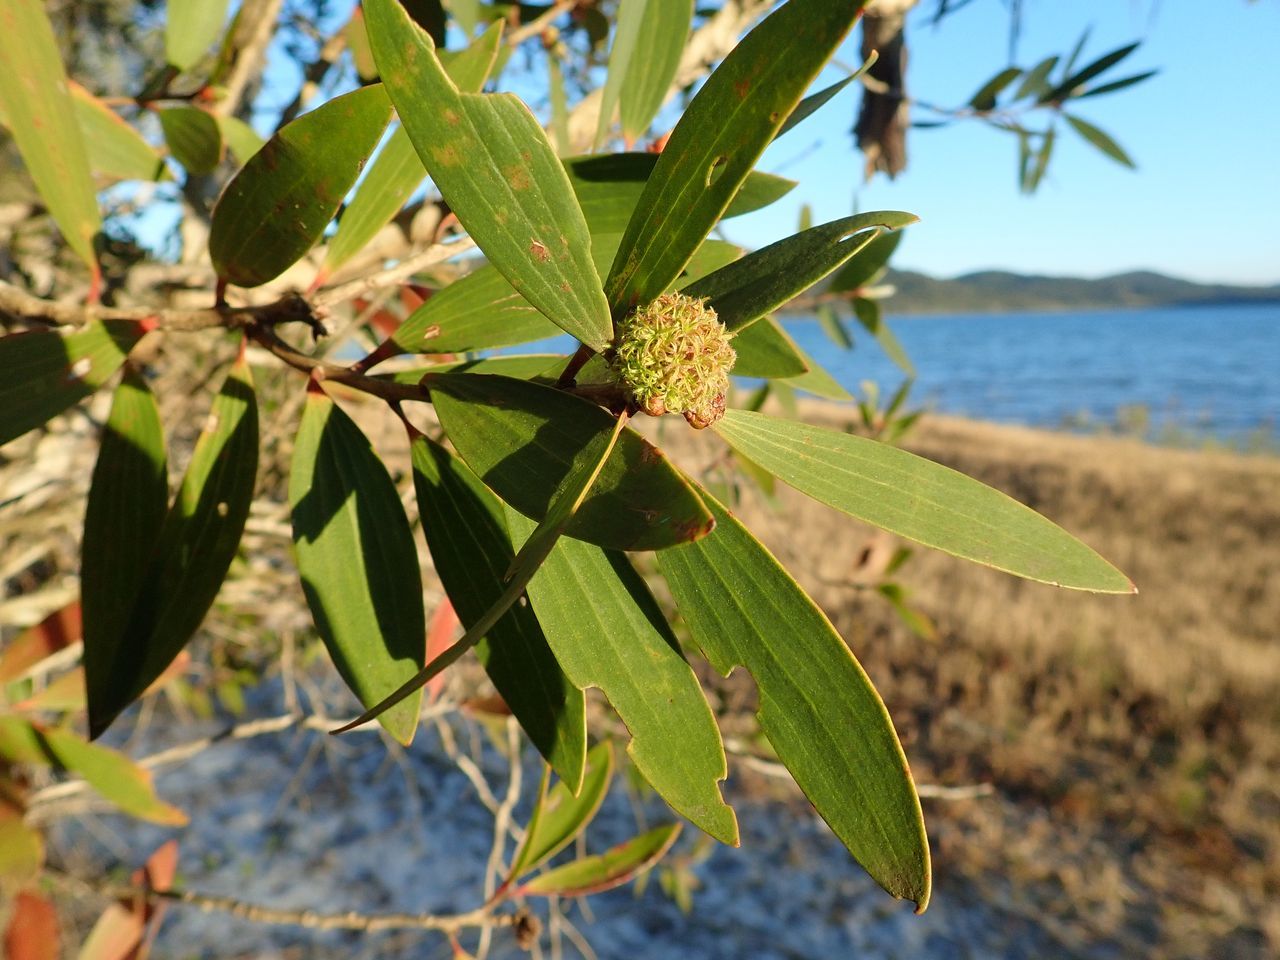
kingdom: Plantae
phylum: Tracheophyta
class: Magnoliopsida
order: Myrtales
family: Myrtaceae
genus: Melaleuca
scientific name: Melaleuca quinquenervia
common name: Punktree
